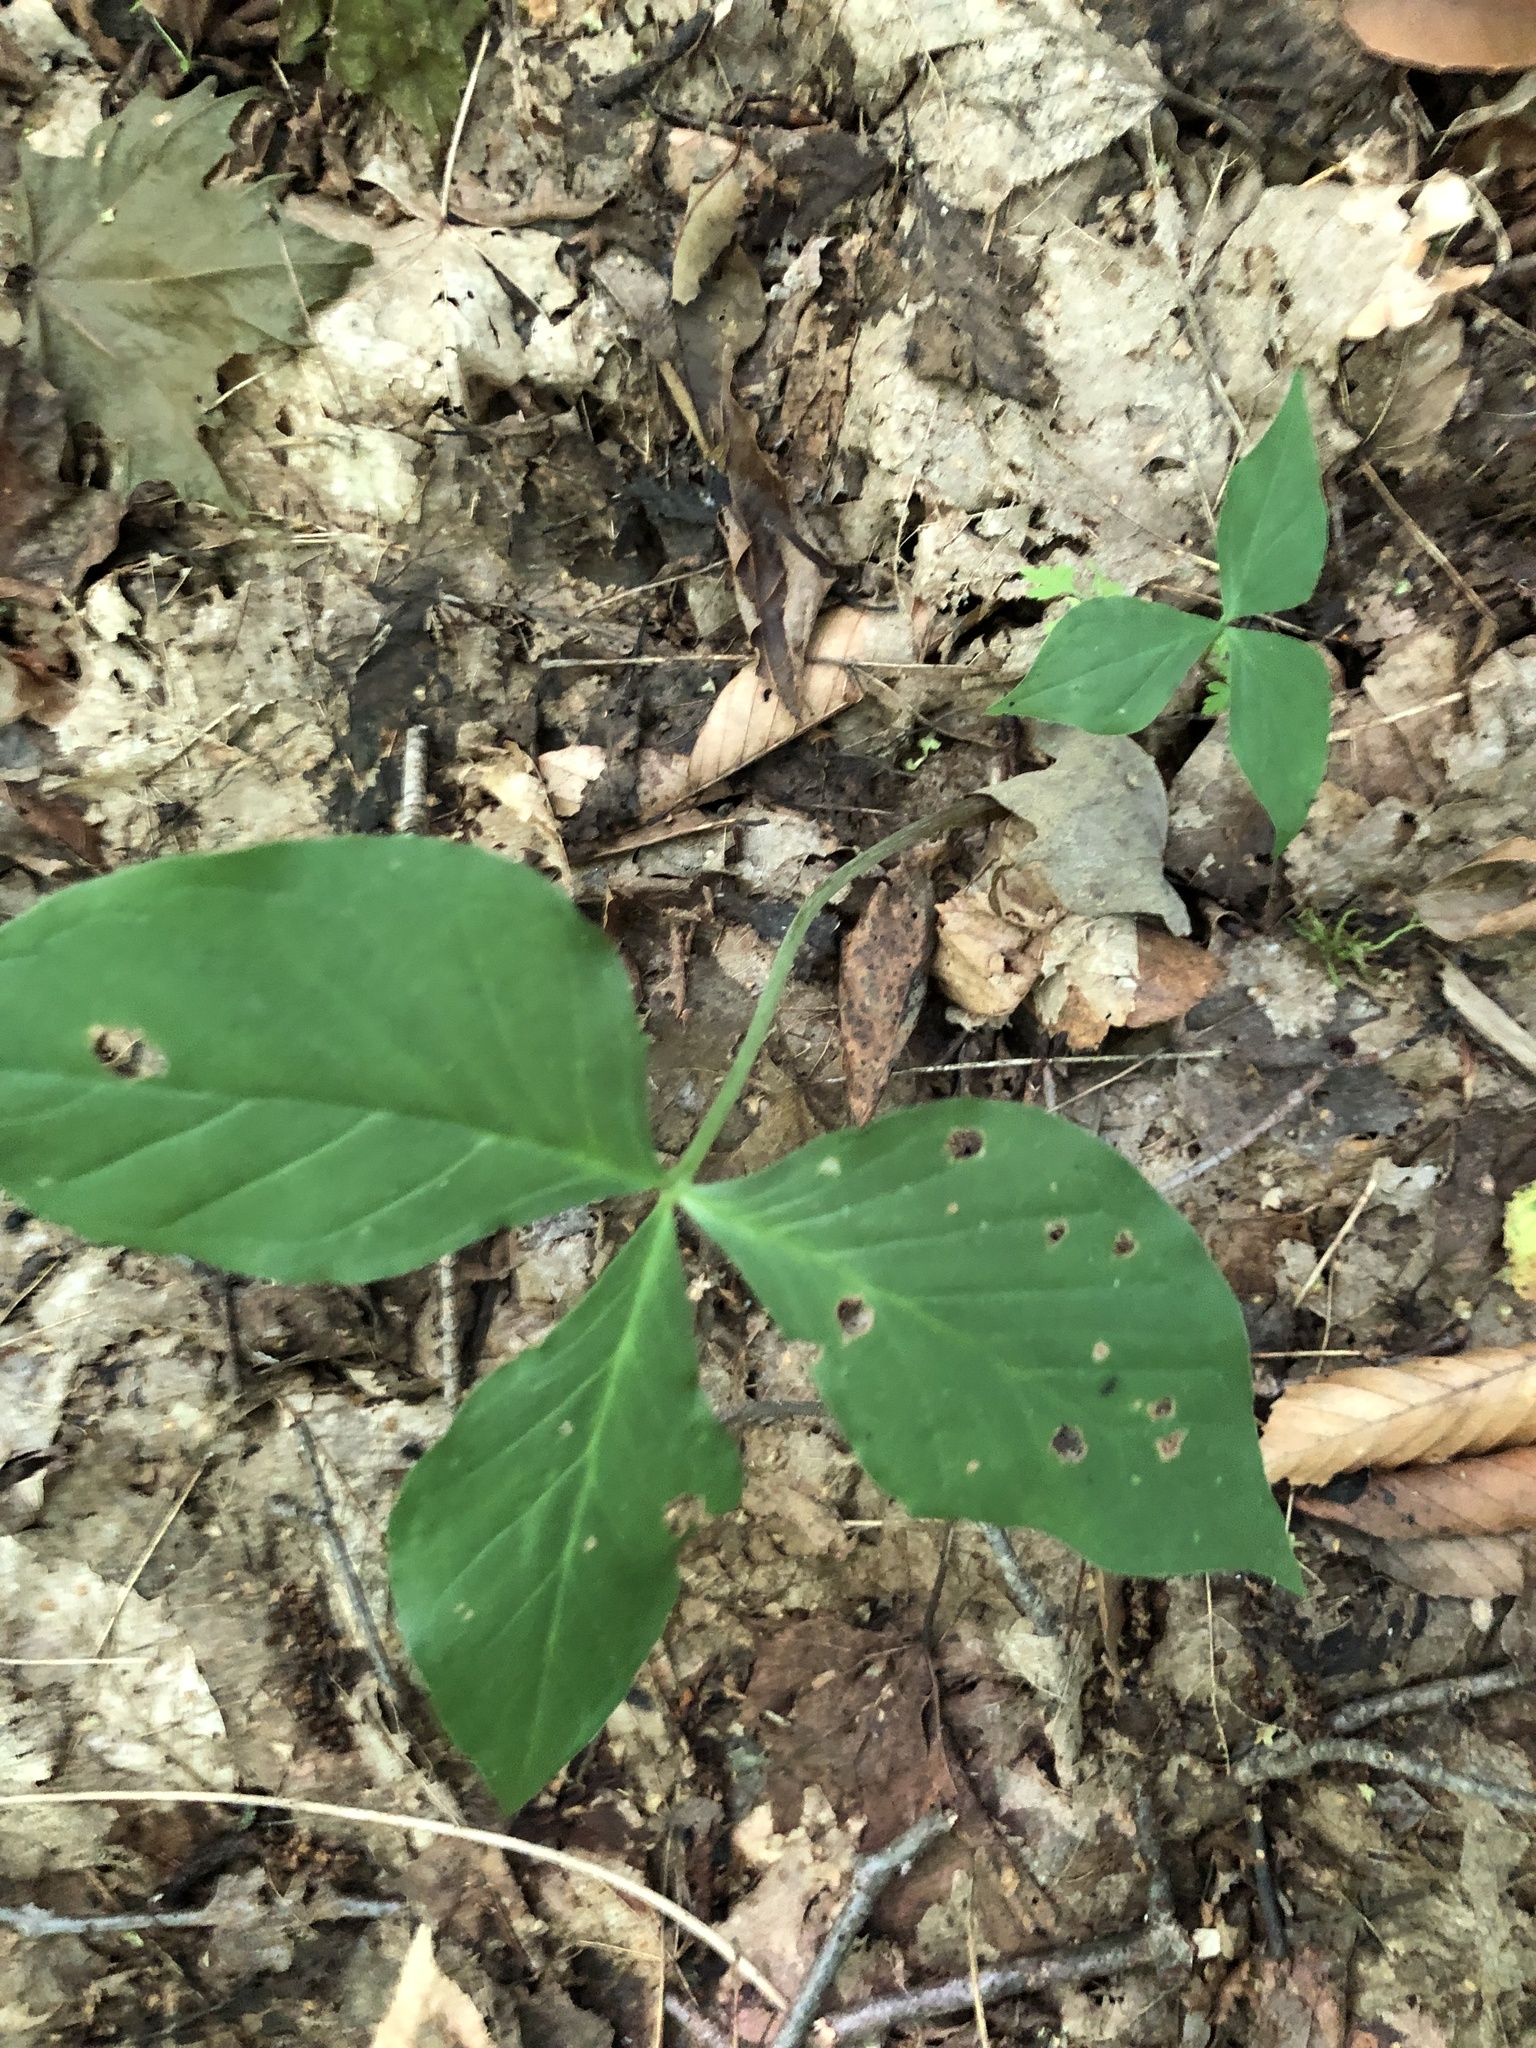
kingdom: Plantae
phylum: Tracheophyta
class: Liliopsida
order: Alismatales
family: Araceae
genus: Arisaema
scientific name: Arisaema triphyllum
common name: Jack-in-the-pulpit
